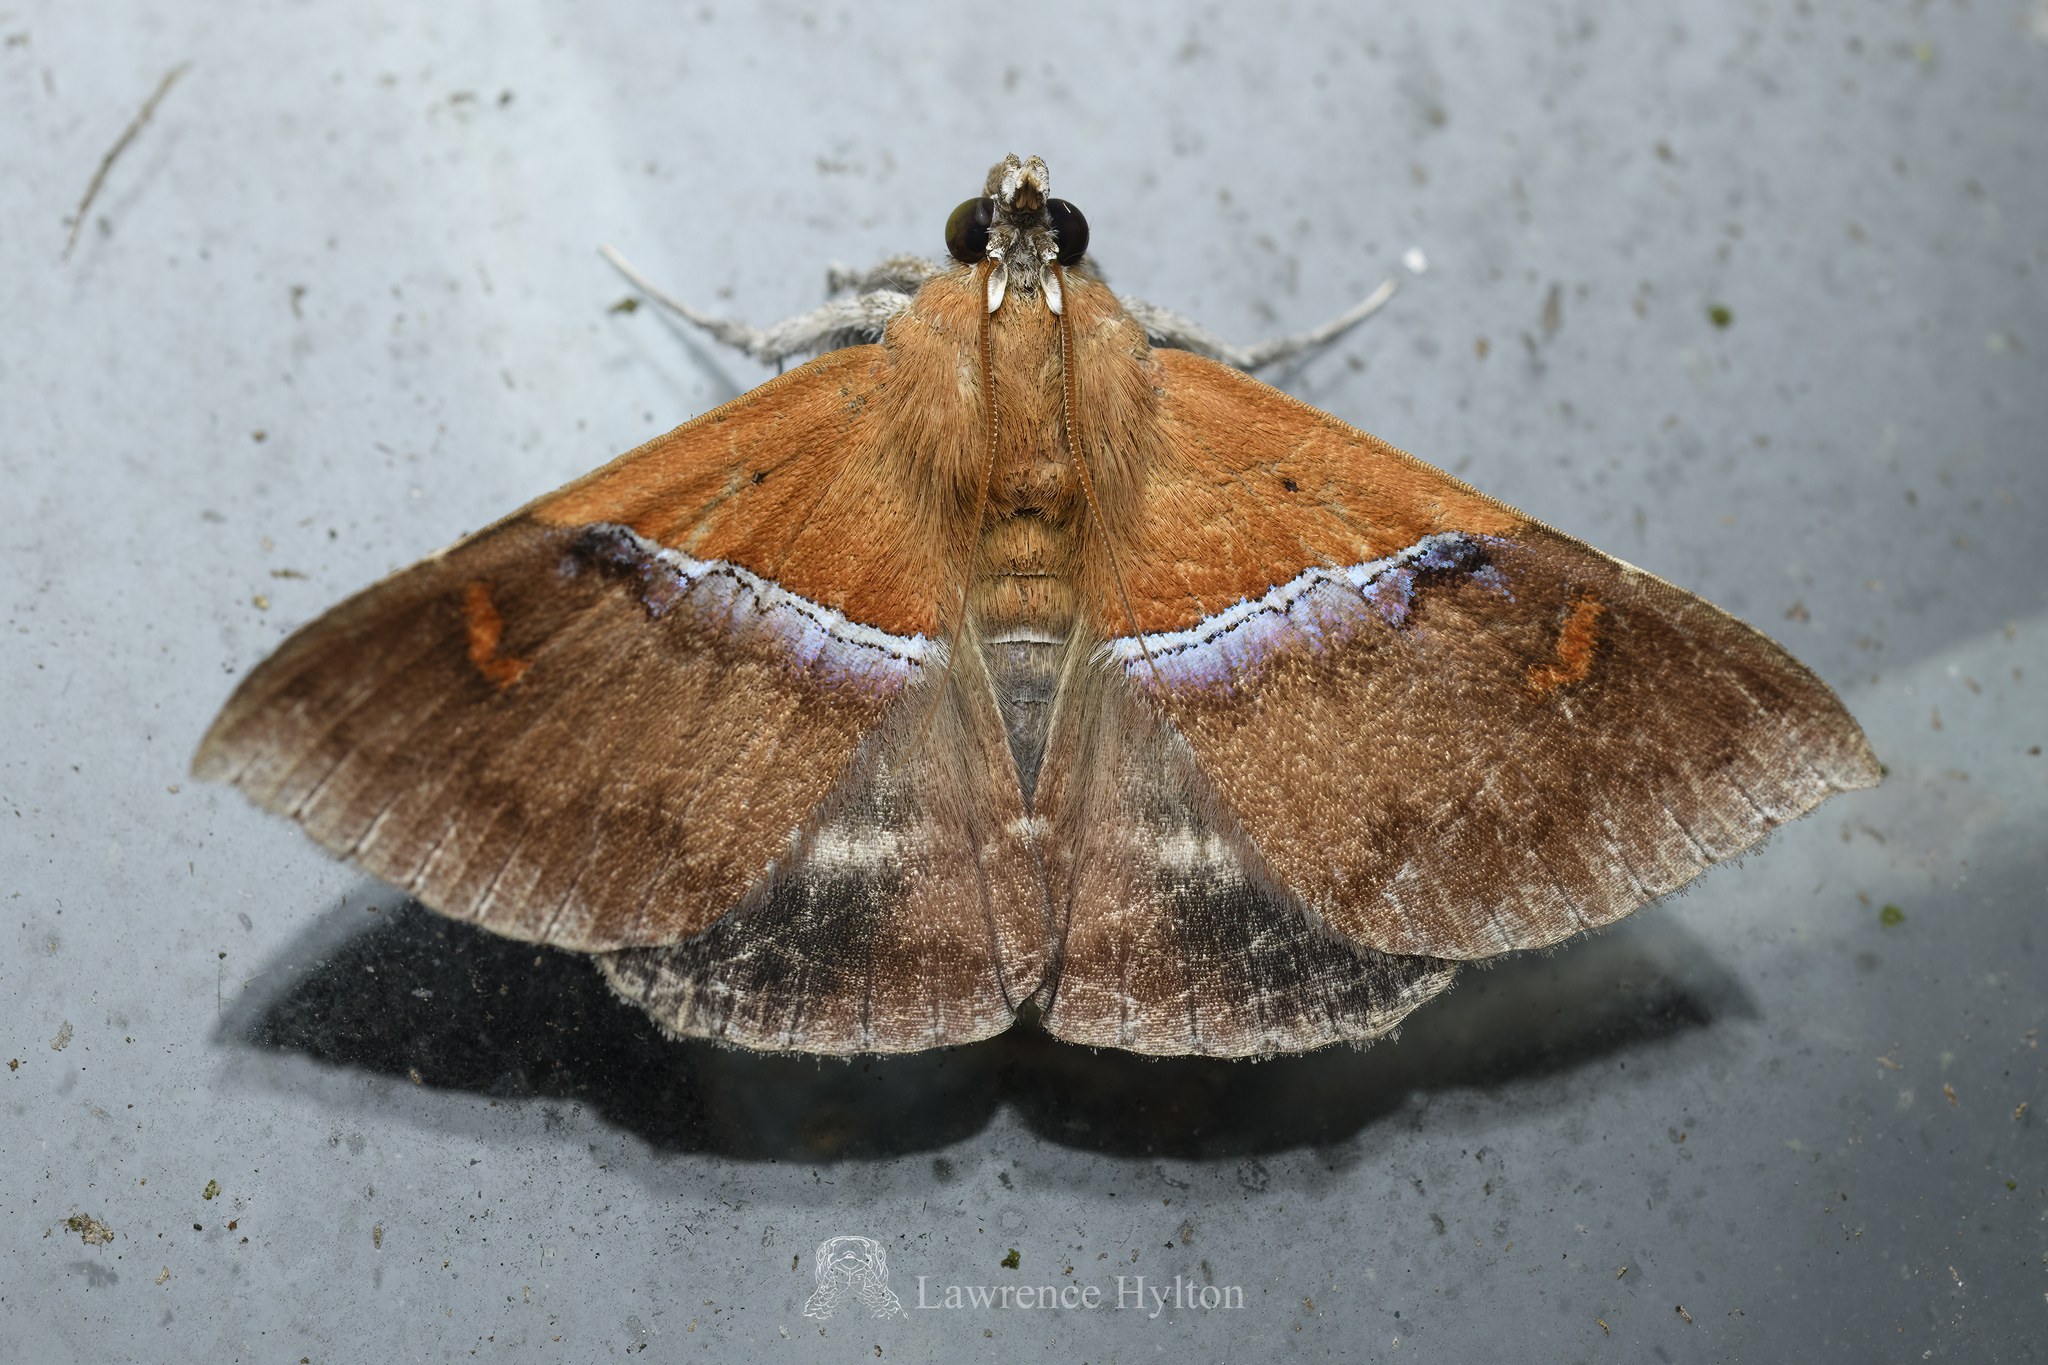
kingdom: Animalia
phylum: Arthropoda
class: Insecta
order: Lepidoptera
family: Erebidae
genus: Sympis
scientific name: Sympis rufibasis
